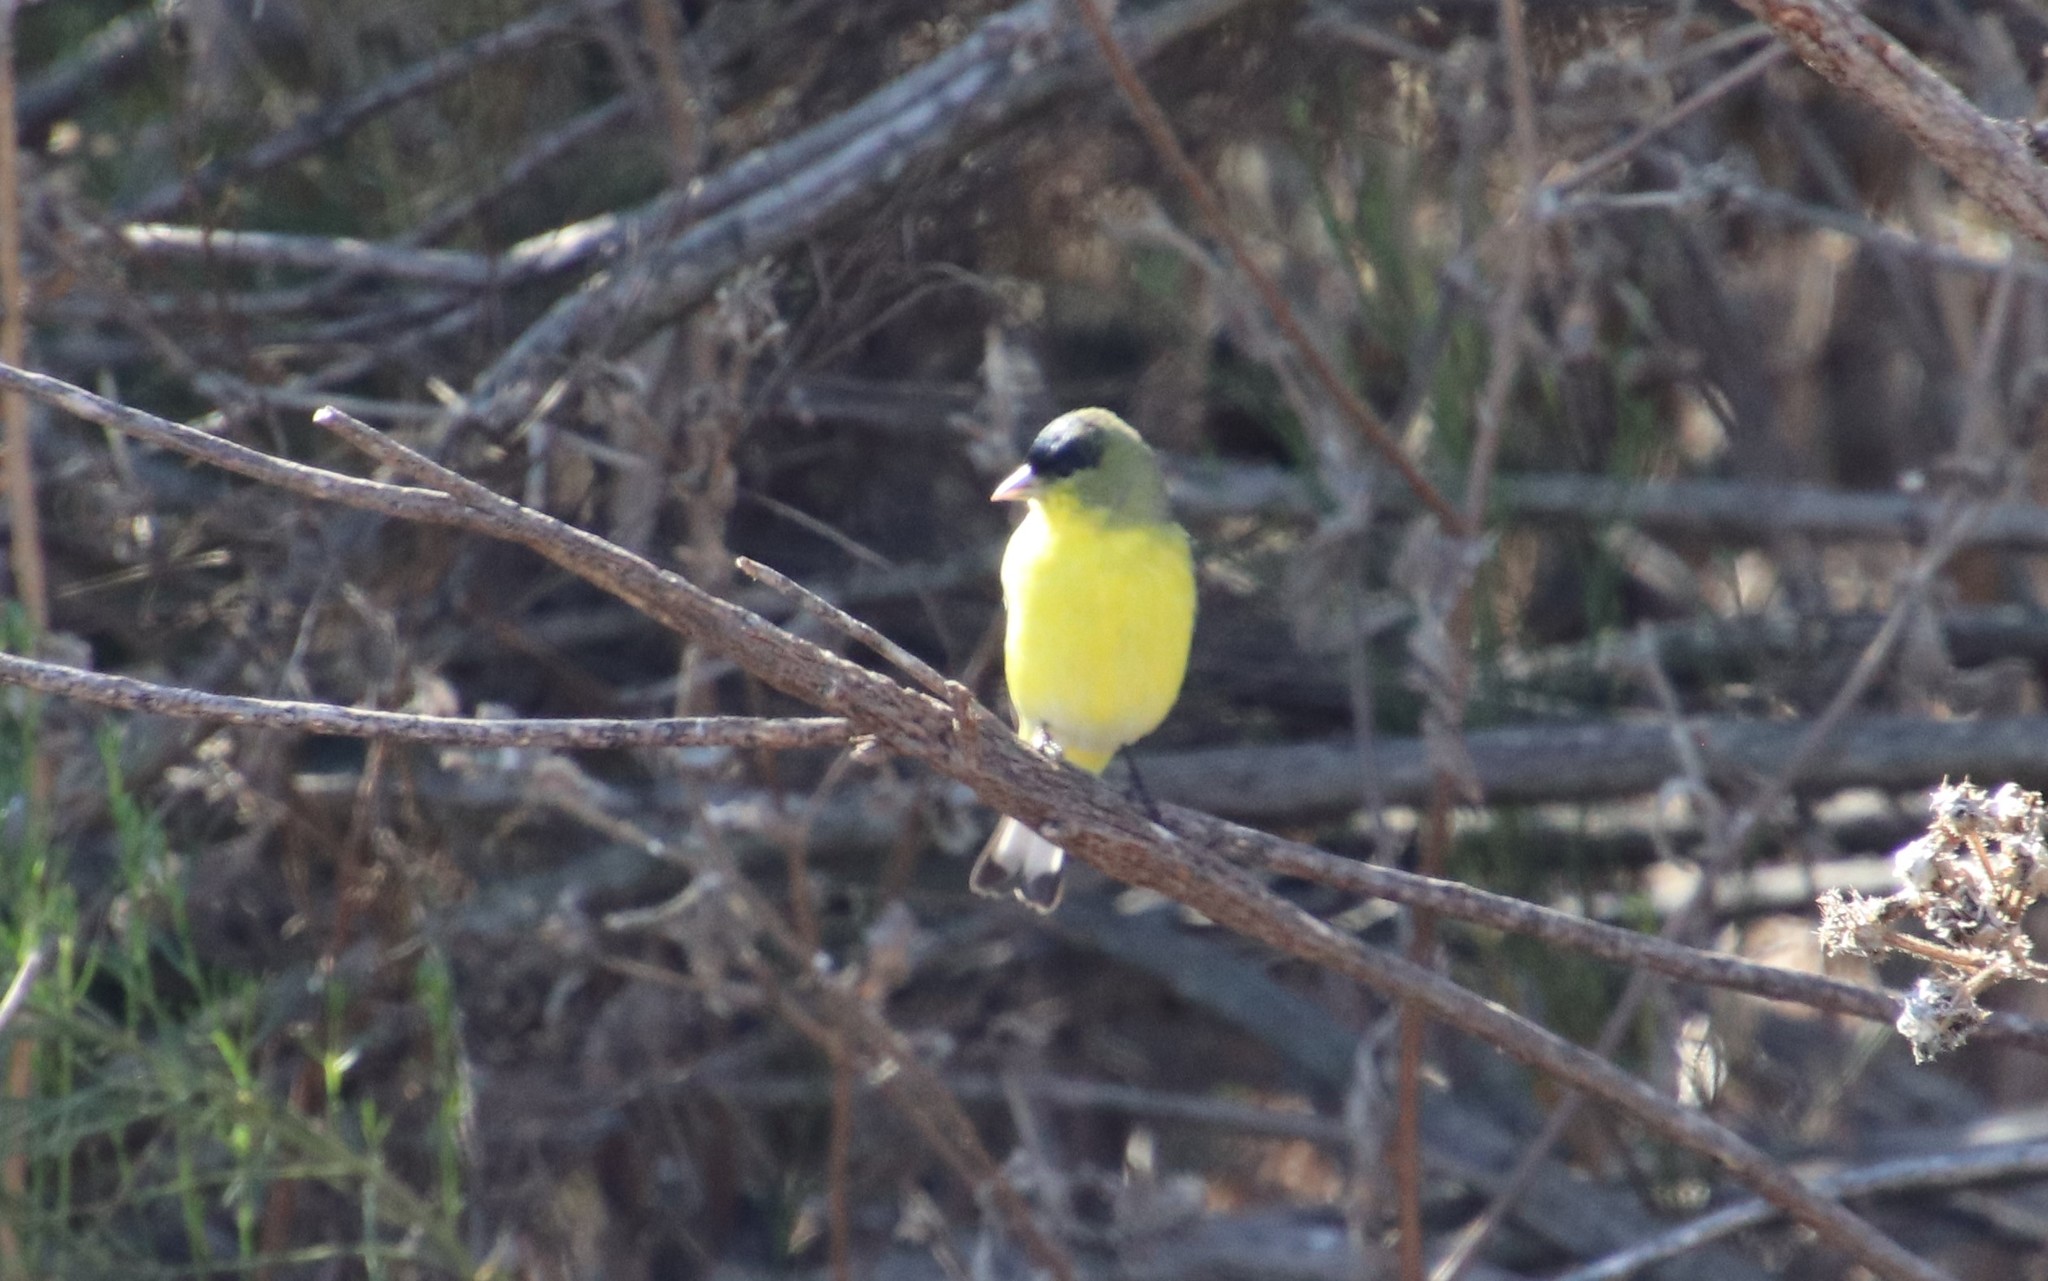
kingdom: Animalia
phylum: Chordata
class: Aves
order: Passeriformes
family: Fringillidae
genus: Spinus
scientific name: Spinus psaltria
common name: Lesser goldfinch
